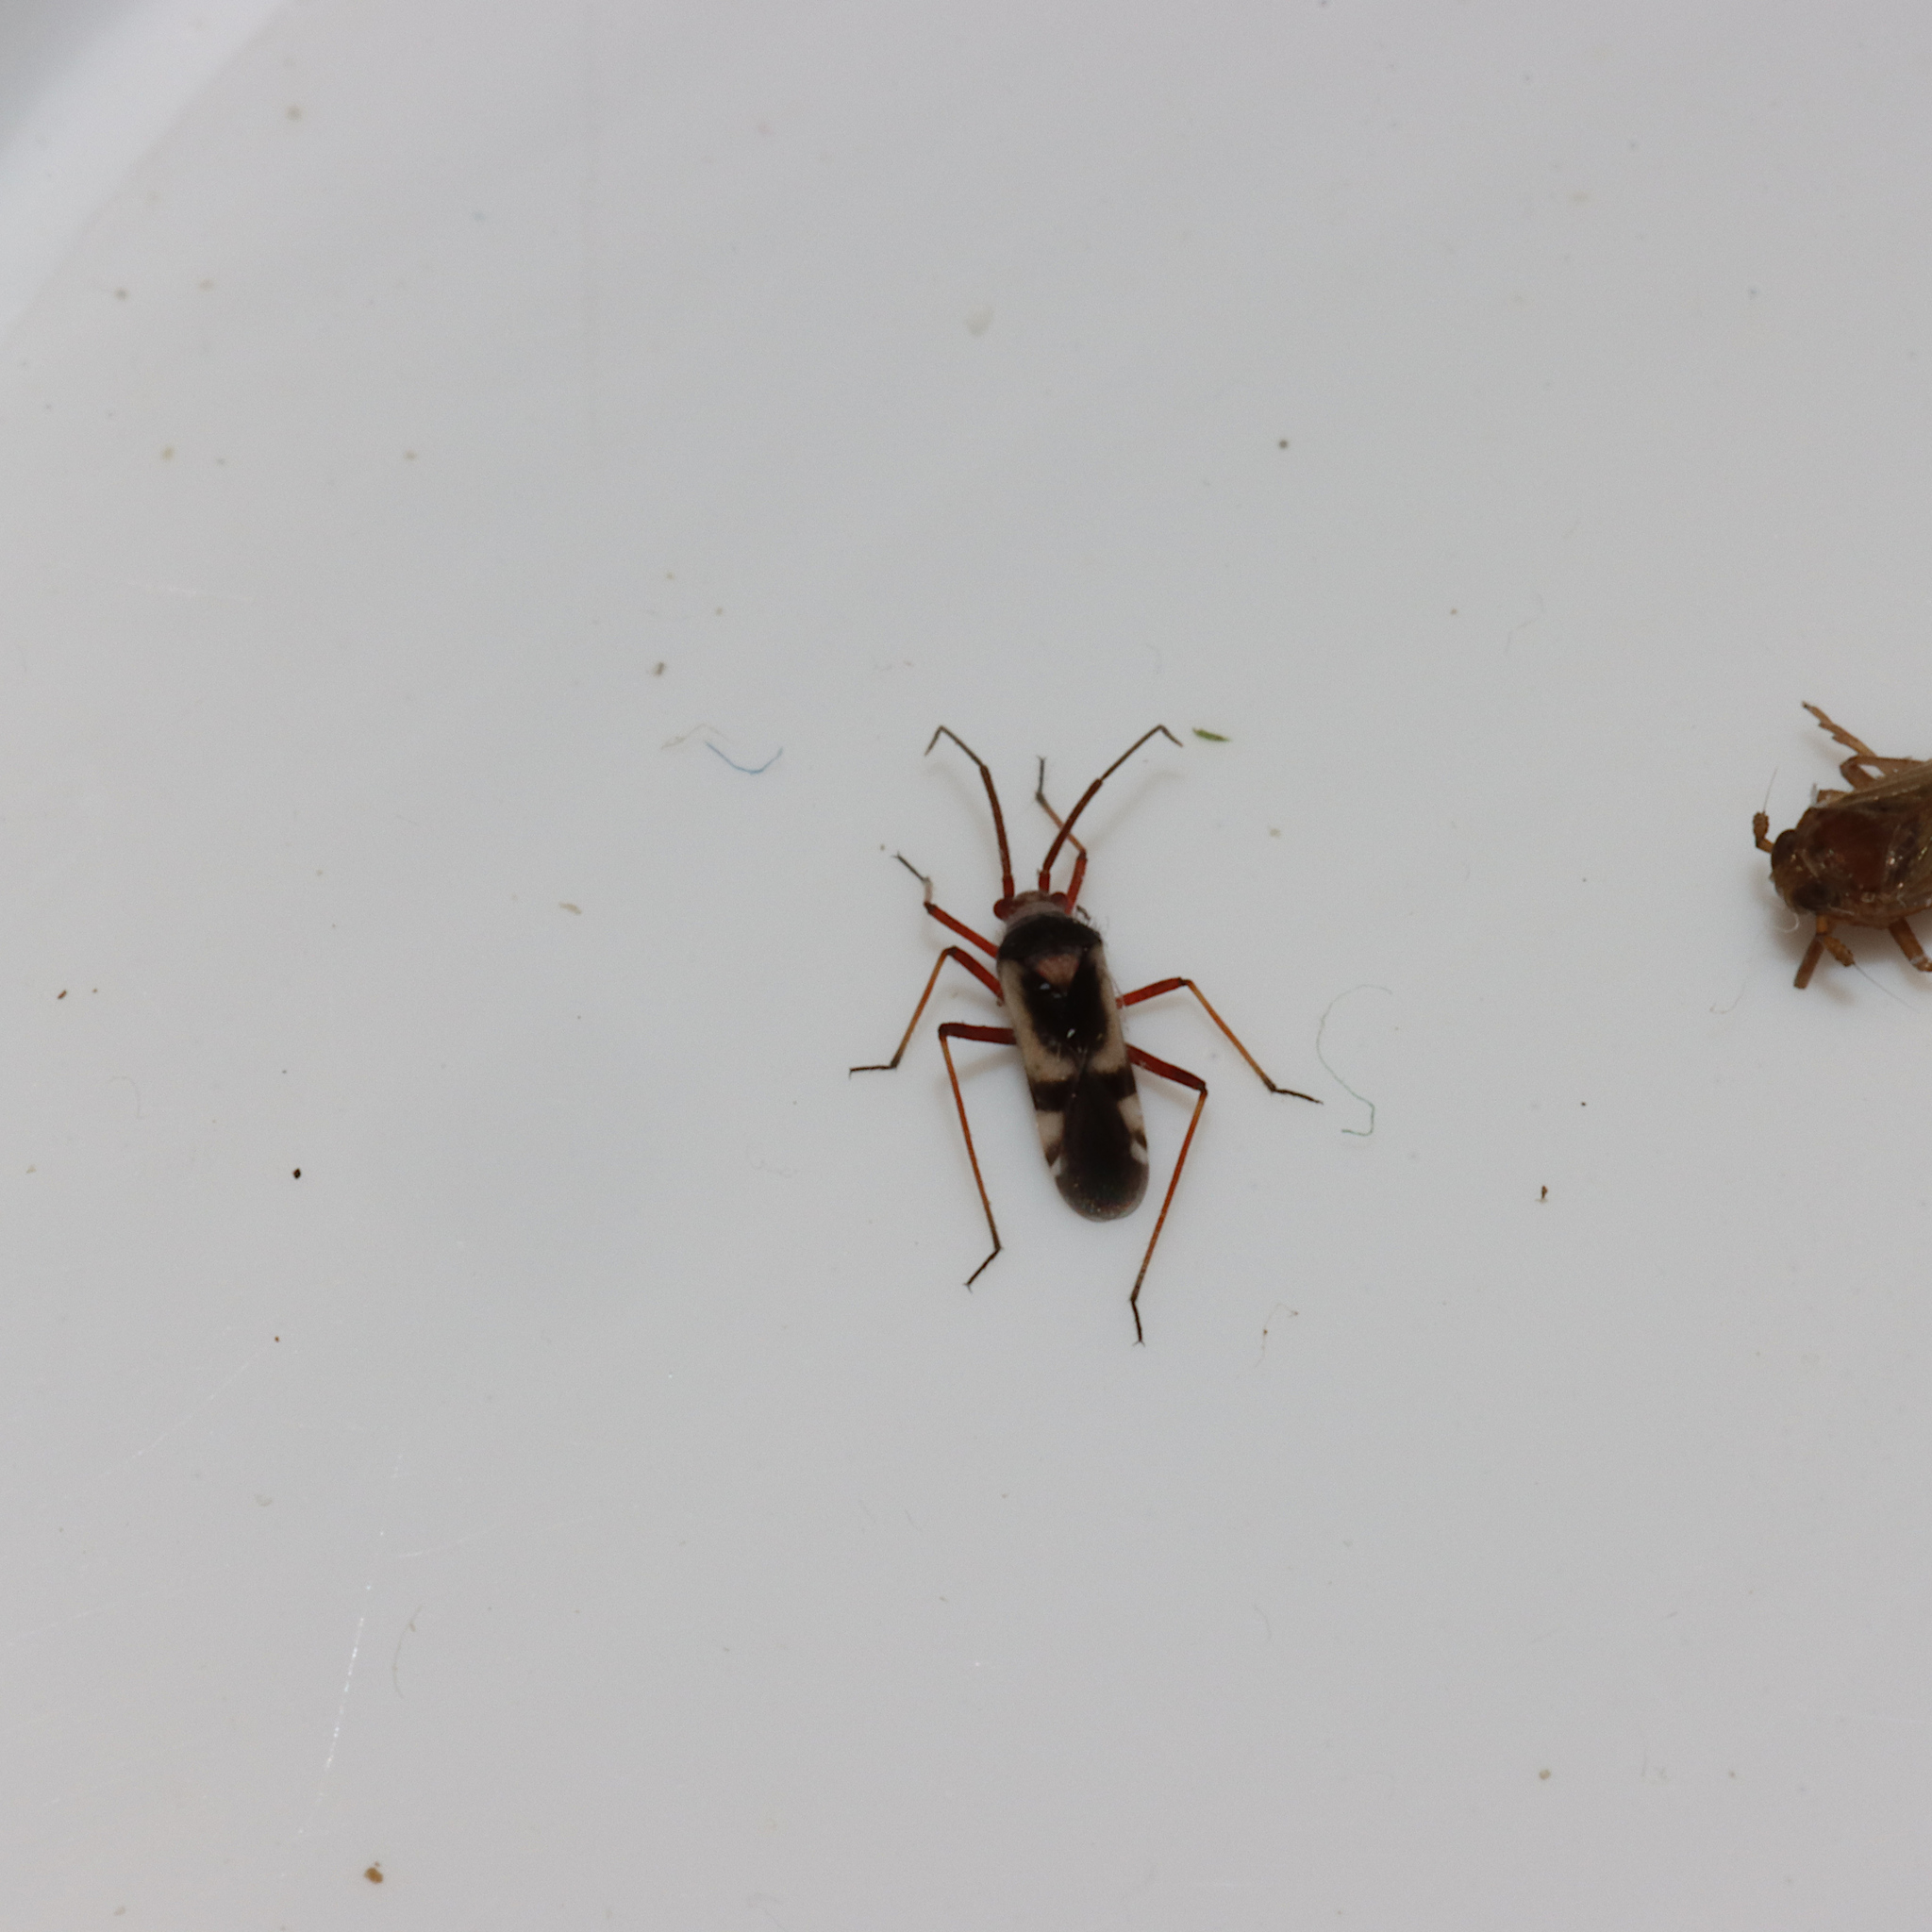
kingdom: Animalia
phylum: Arthropoda
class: Insecta
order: Hemiptera
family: Miridae
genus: Semium
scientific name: Semium hirtum
